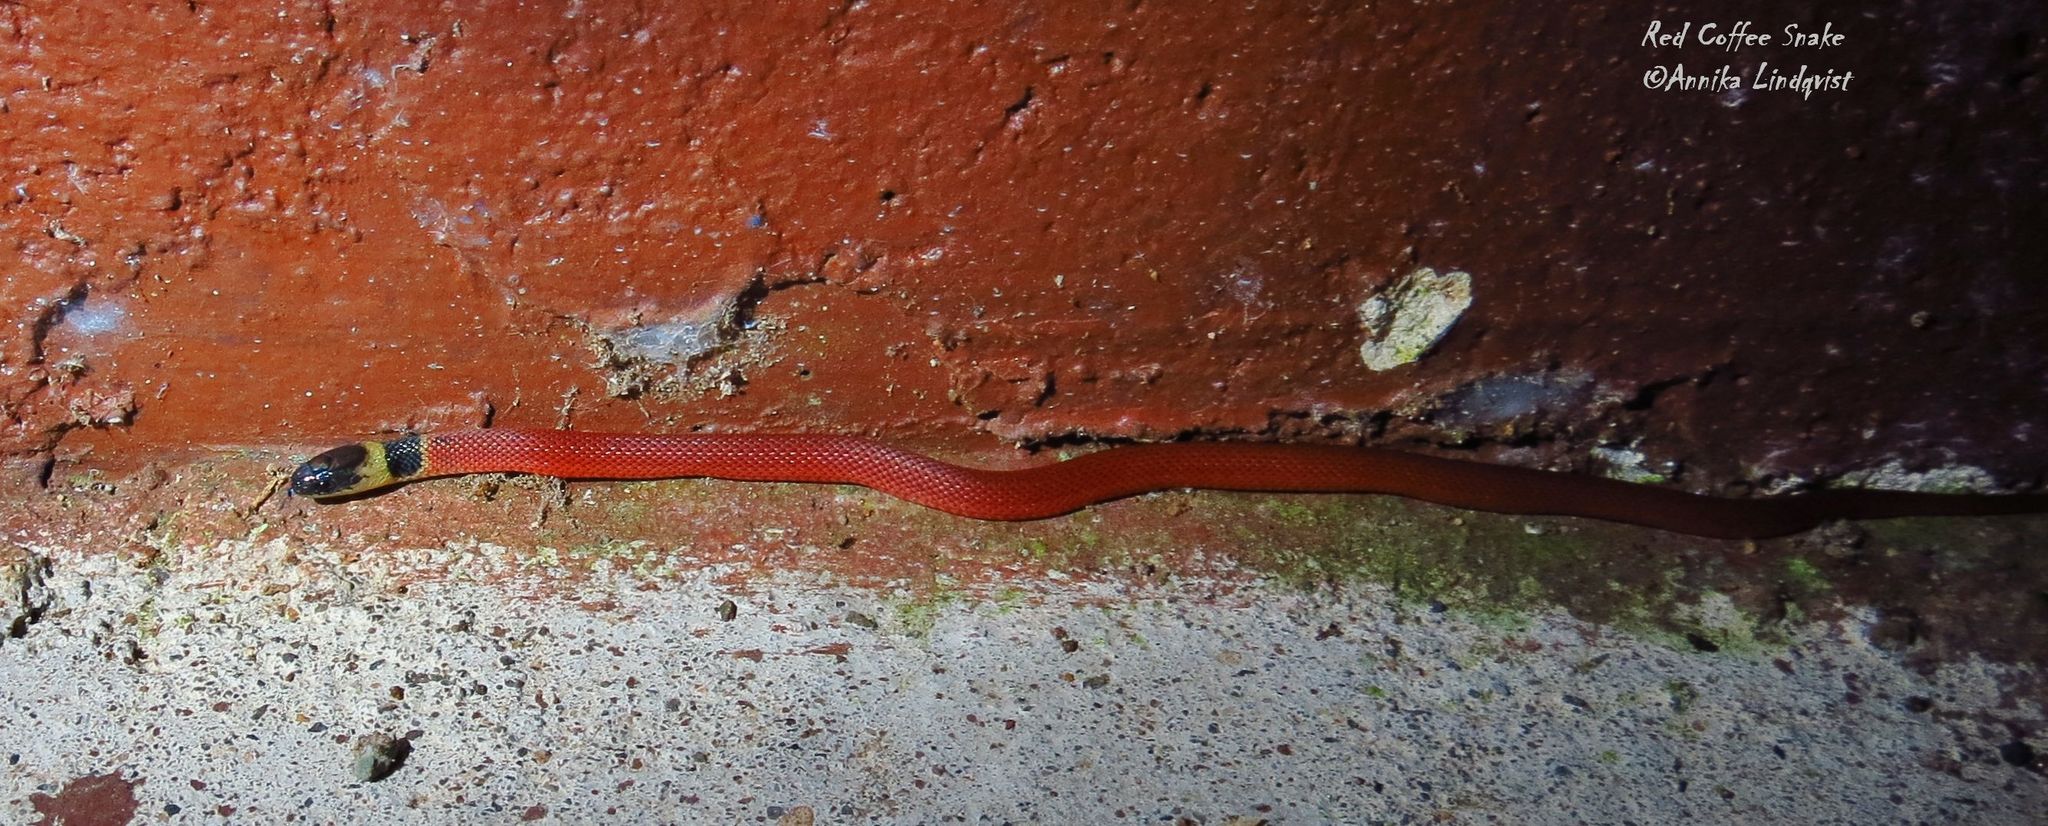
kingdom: Animalia
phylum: Chordata
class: Squamata
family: Colubridae
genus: Ninia
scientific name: Ninia sebae
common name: Redback coffee snake
